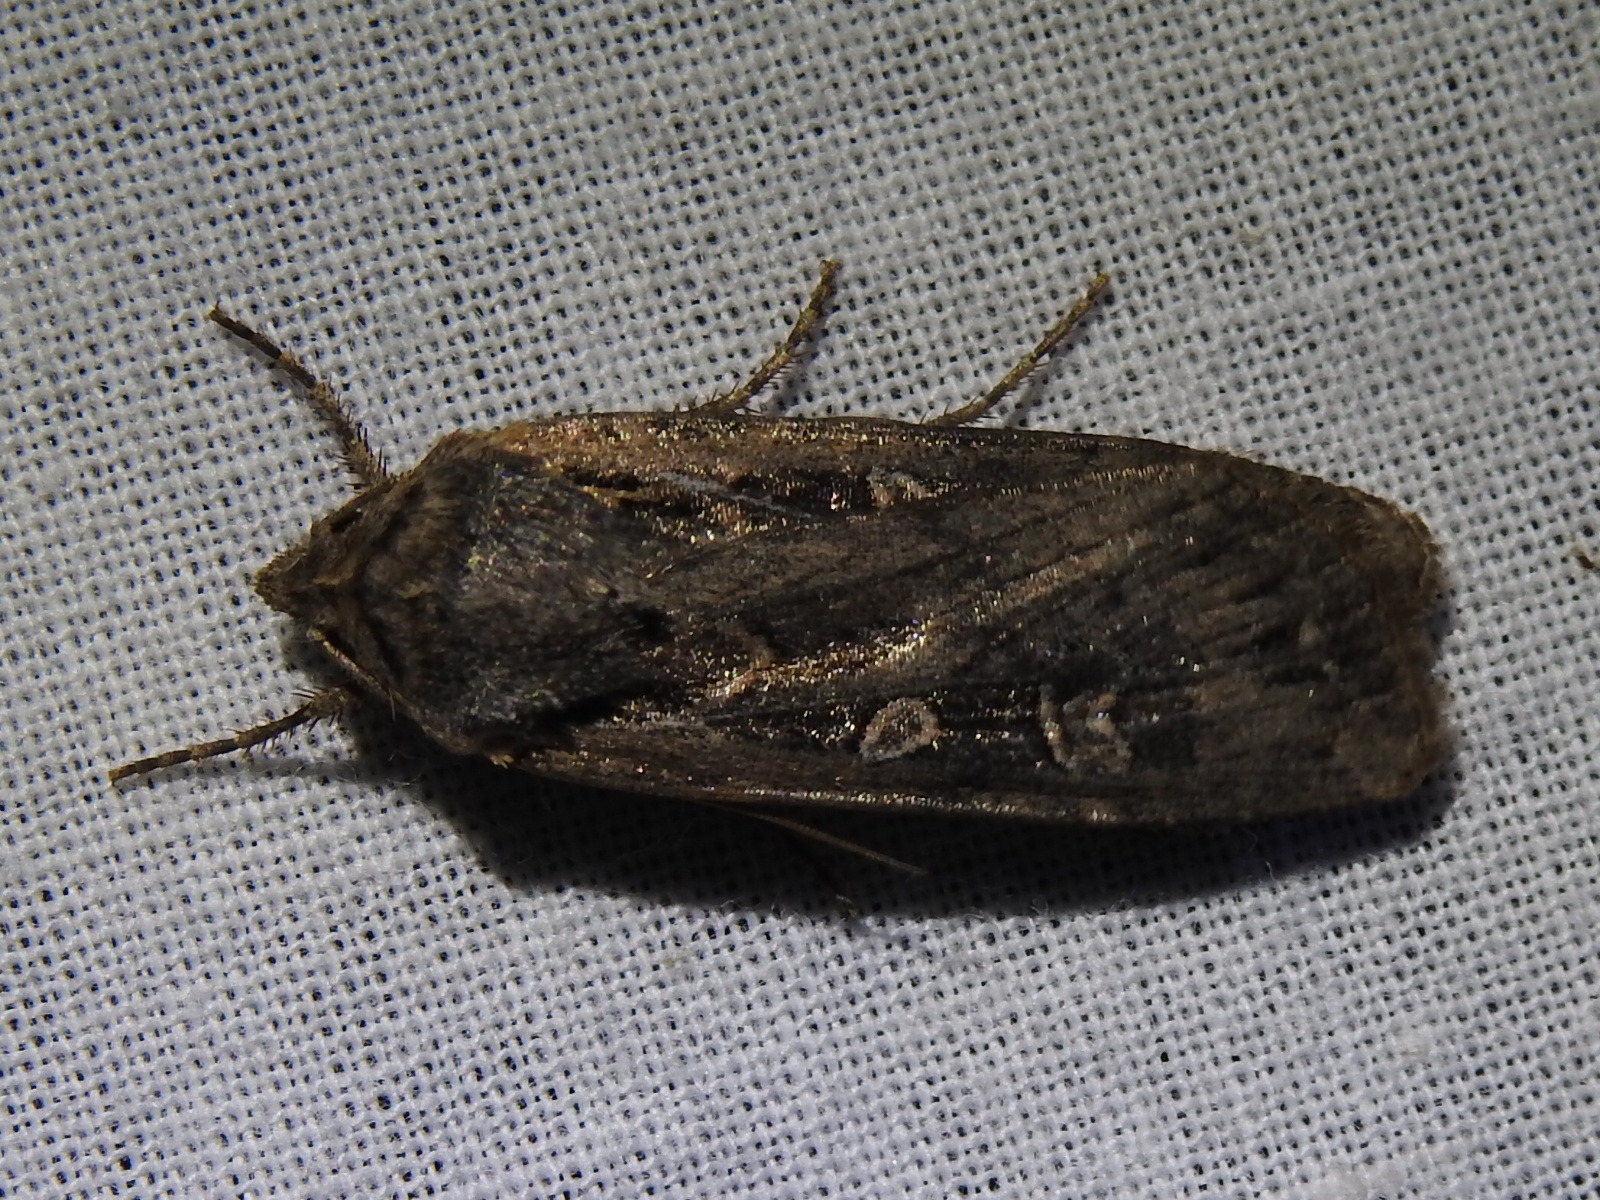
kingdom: Animalia
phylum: Arthropoda
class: Insecta
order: Lepidoptera
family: Noctuidae
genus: Feltia
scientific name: Feltia subterranea
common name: Granulate cutworm
